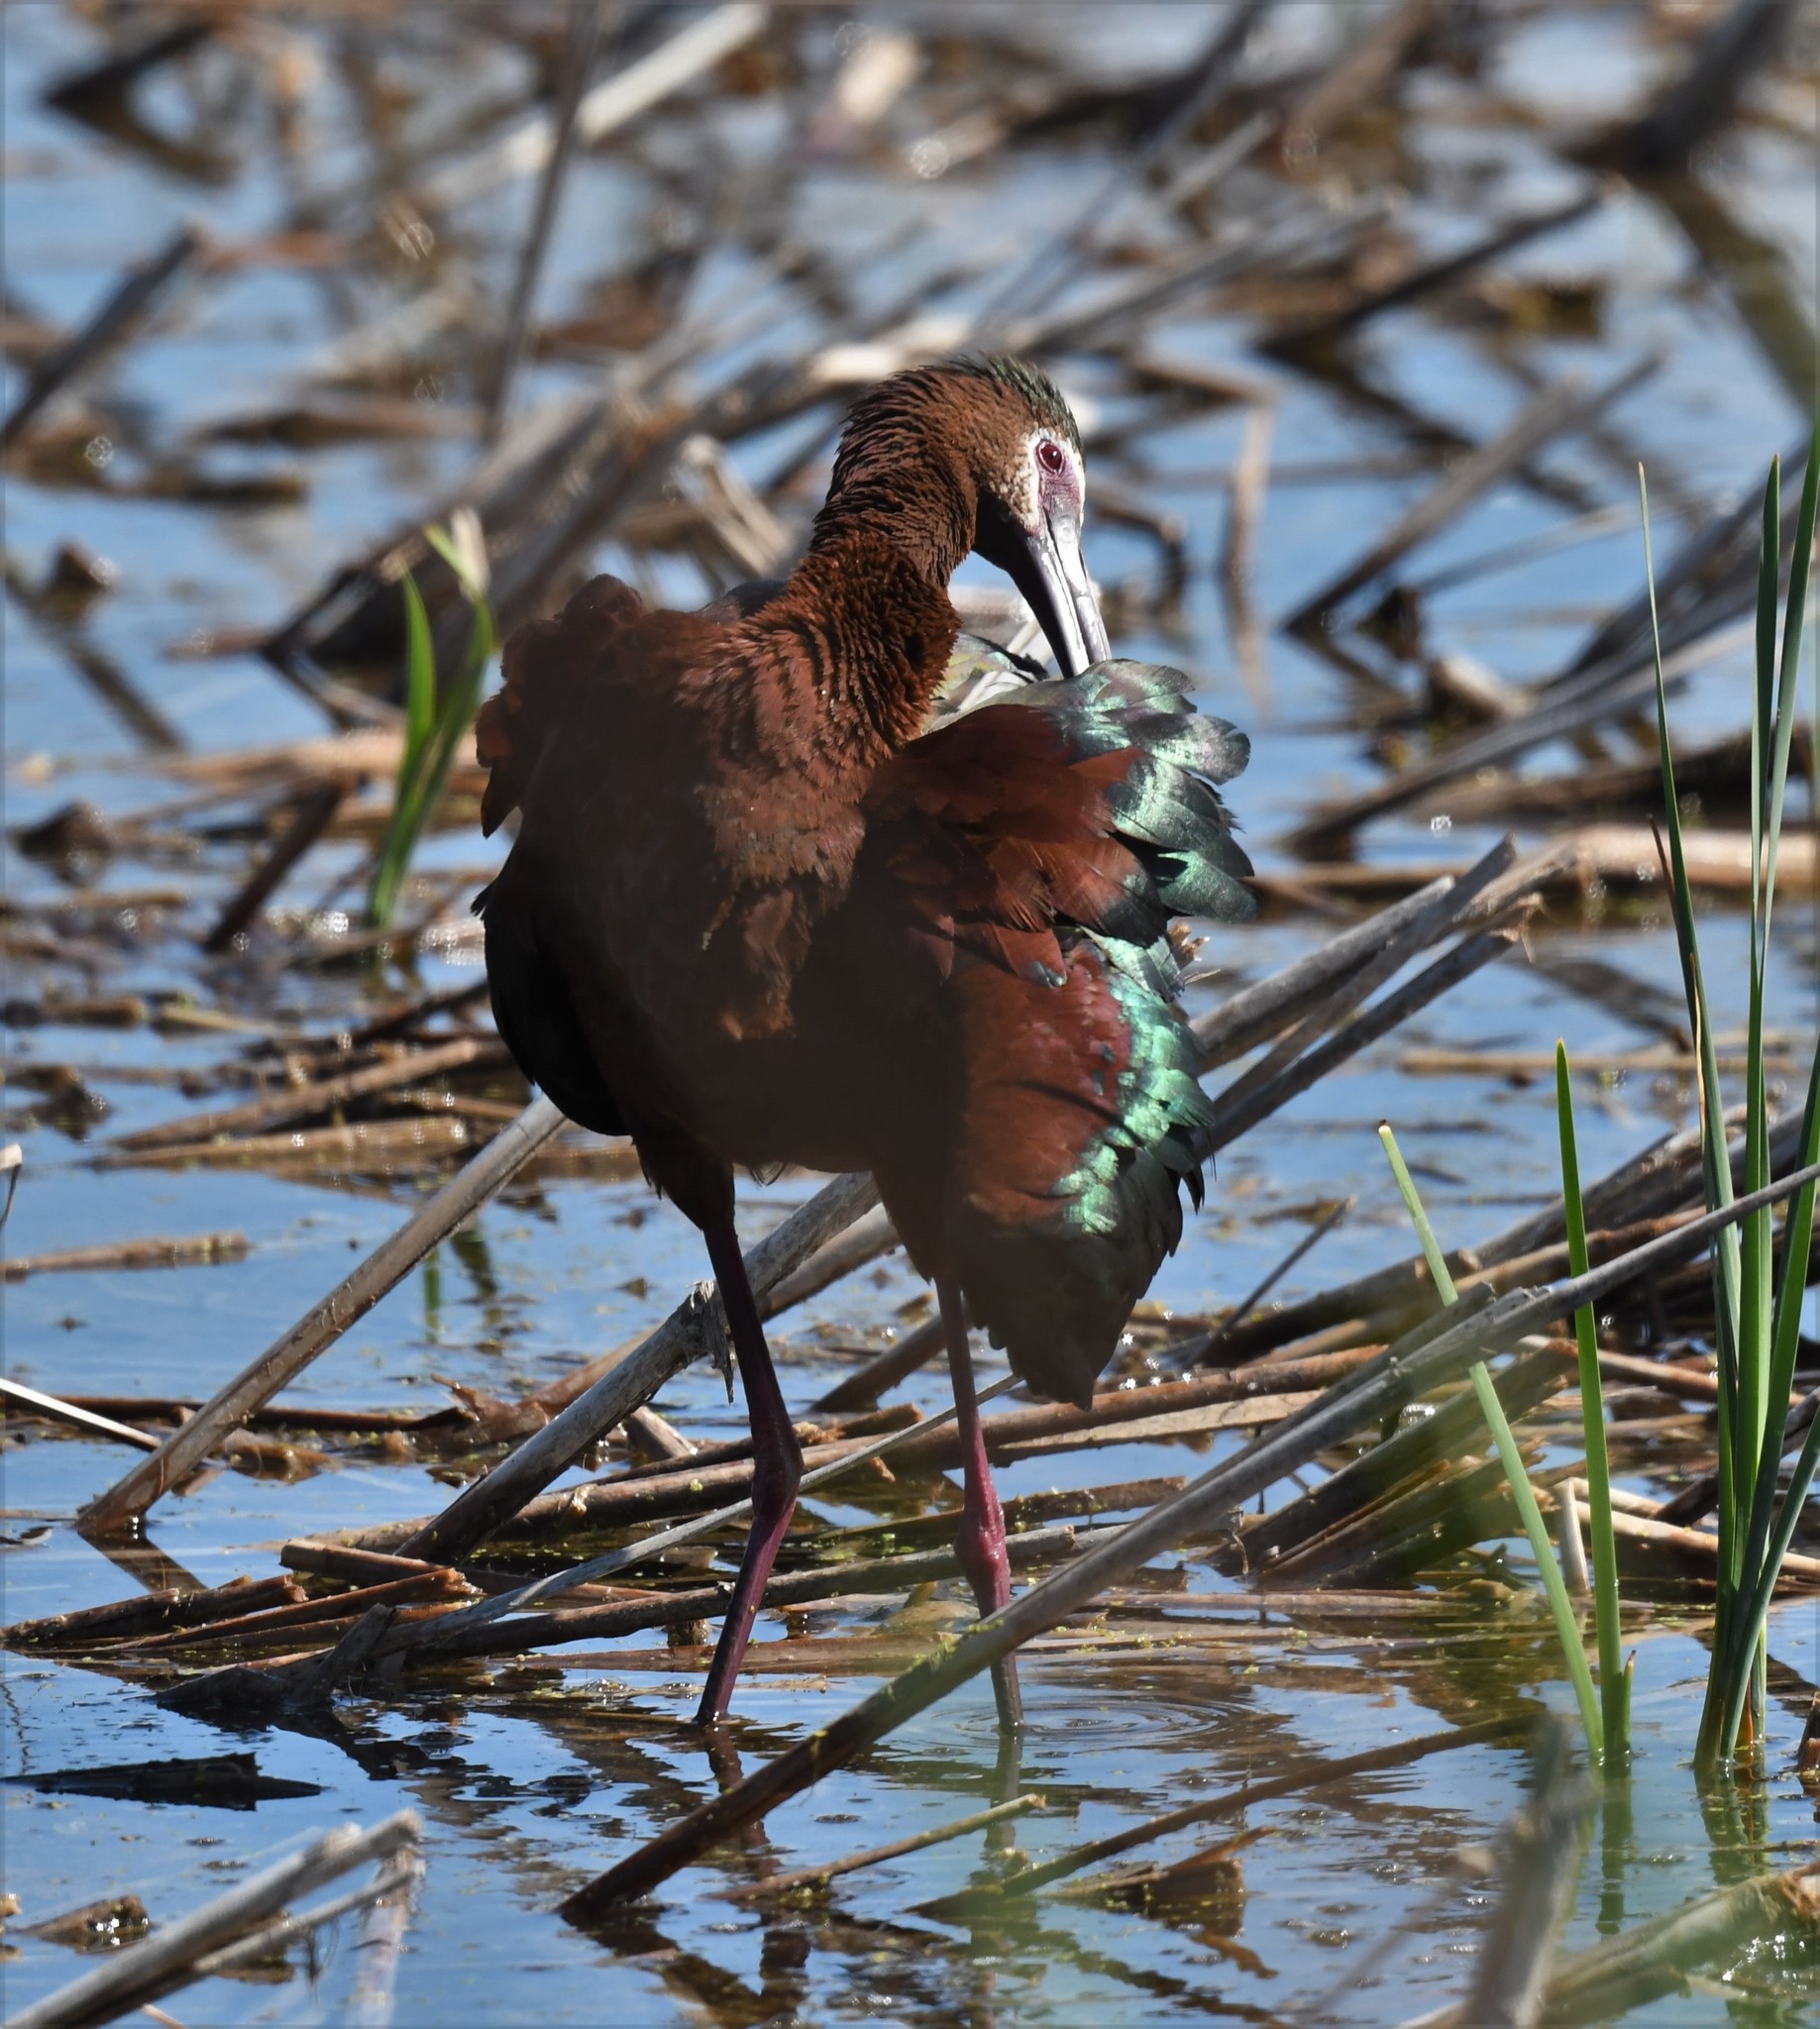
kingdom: Animalia
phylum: Chordata
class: Aves
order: Pelecaniformes
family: Threskiornithidae
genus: Plegadis
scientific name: Plegadis chihi
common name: White-faced ibis
